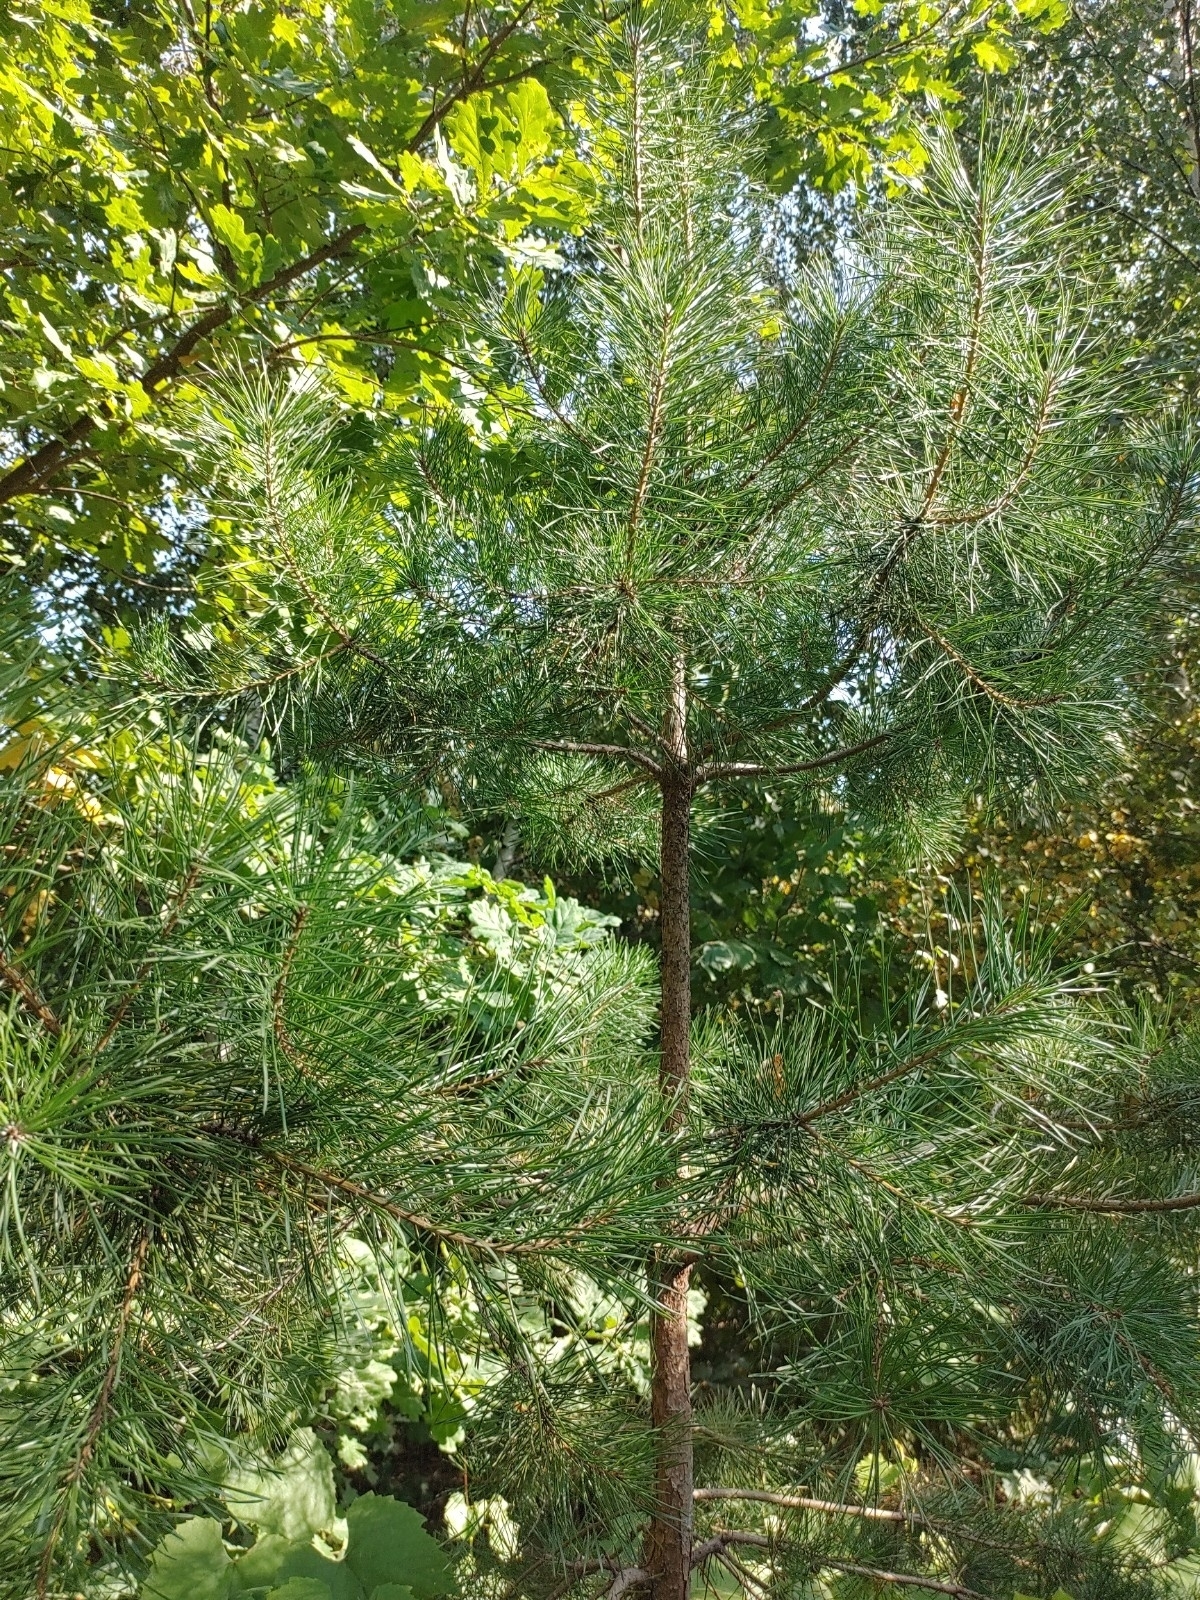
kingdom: Plantae
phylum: Tracheophyta
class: Pinopsida
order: Pinales
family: Pinaceae
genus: Pinus
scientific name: Pinus sylvestris
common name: Scots pine
